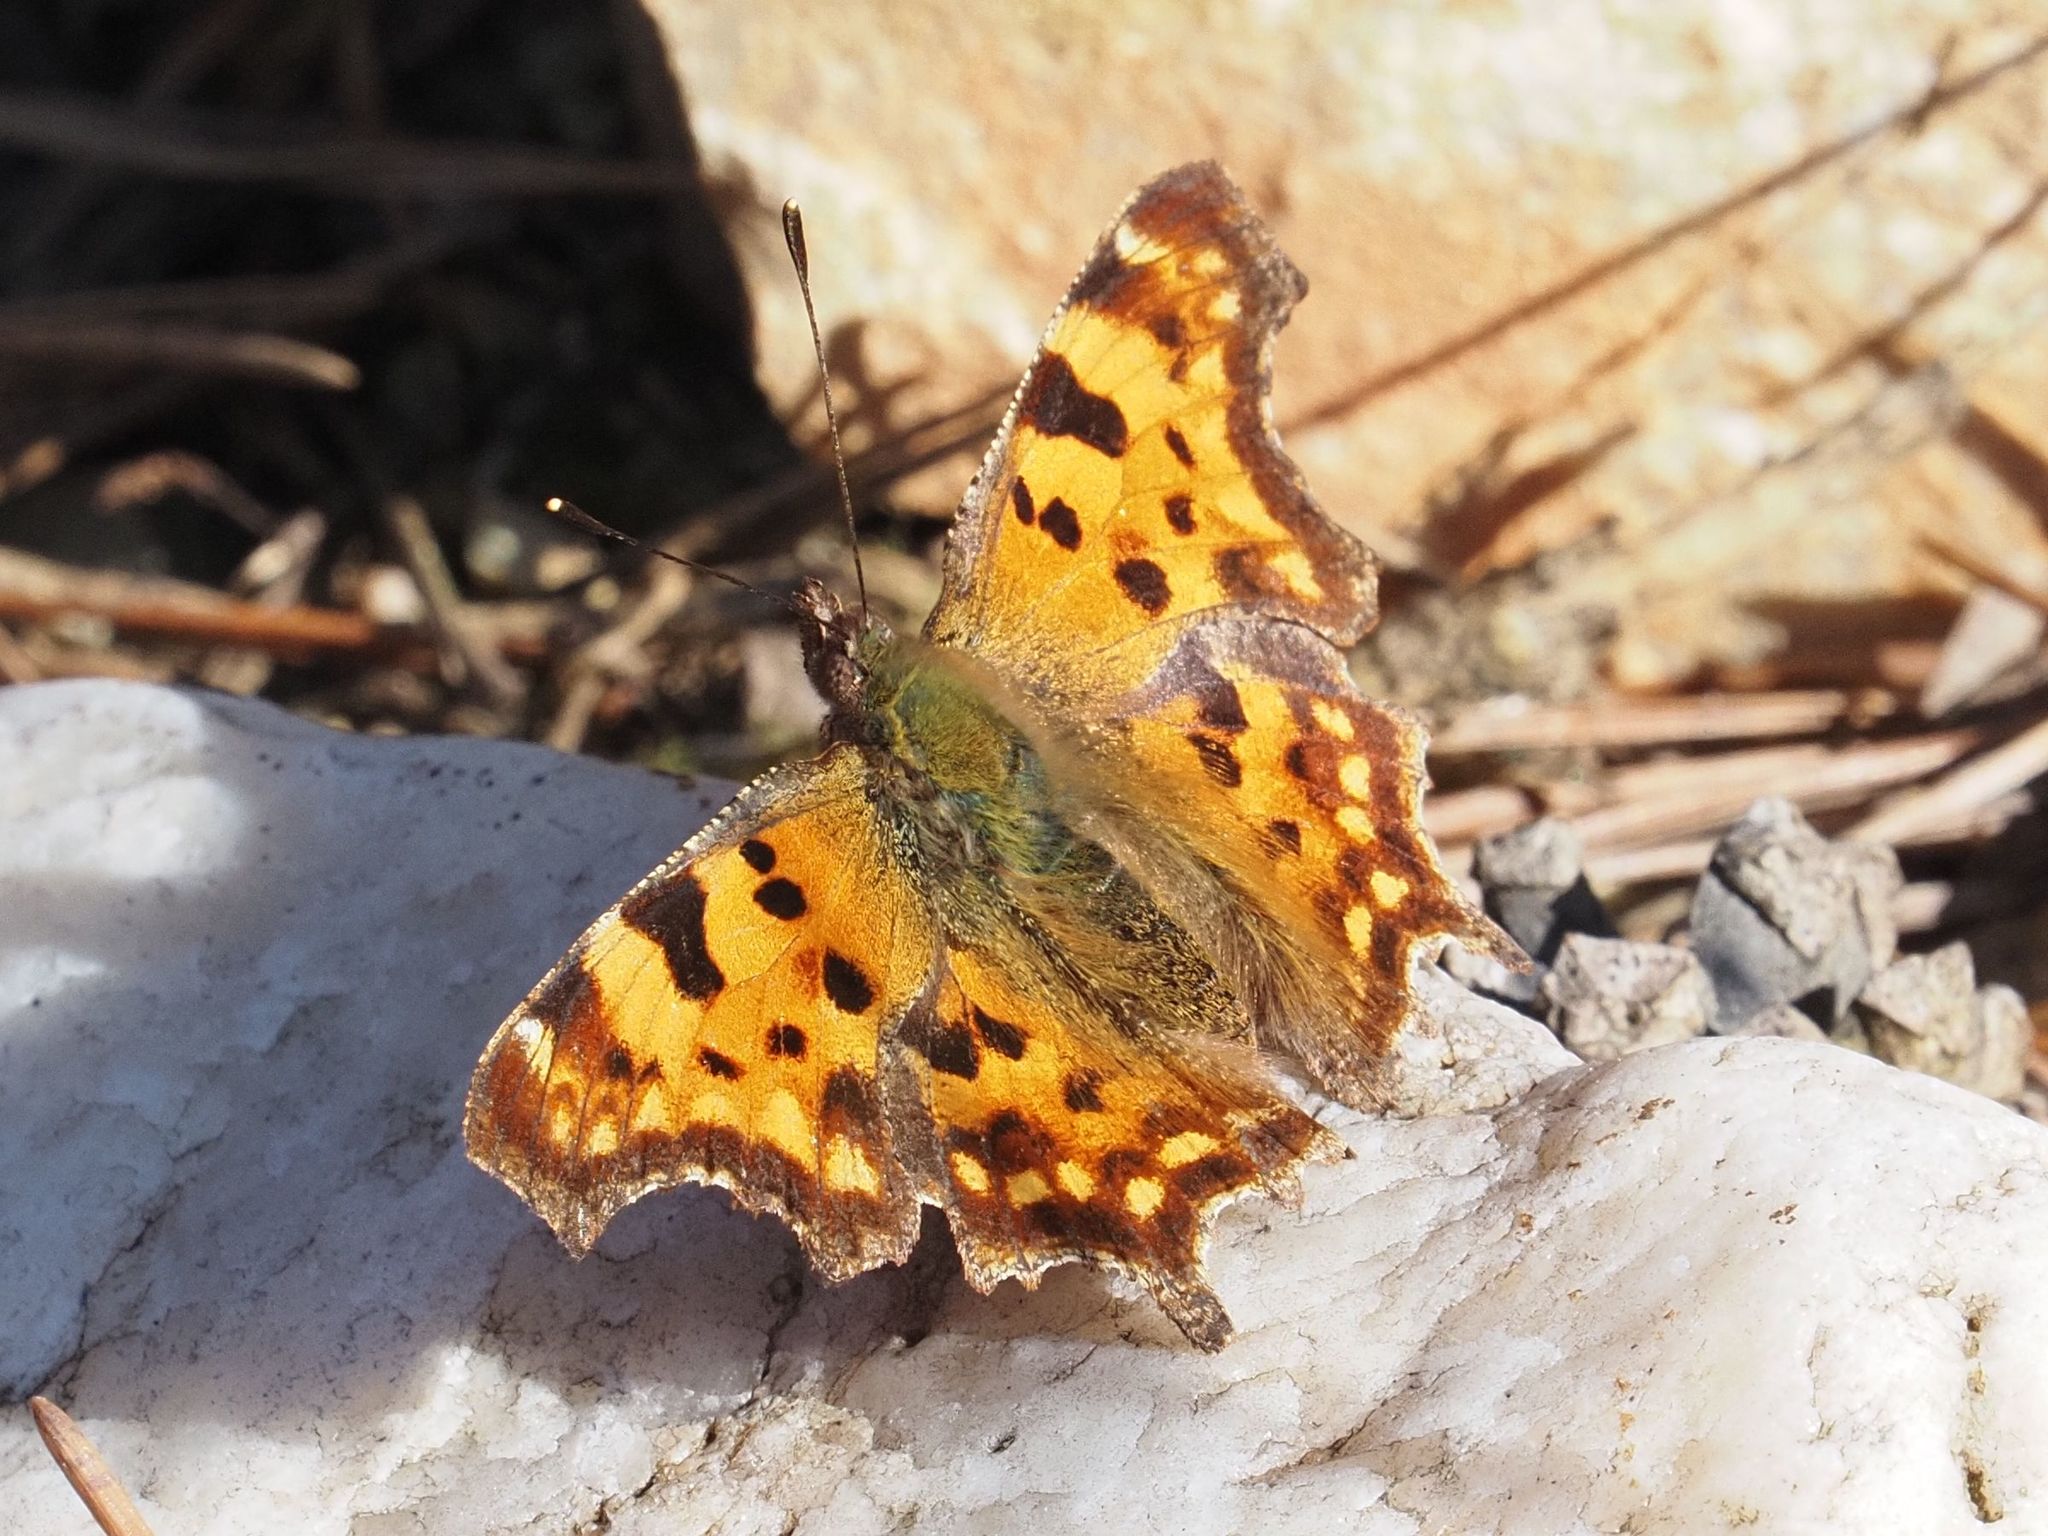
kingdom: Animalia
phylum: Arthropoda
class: Insecta
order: Lepidoptera
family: Nymphalidae
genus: Polygonia
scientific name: Polygonia c-album
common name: Comma
